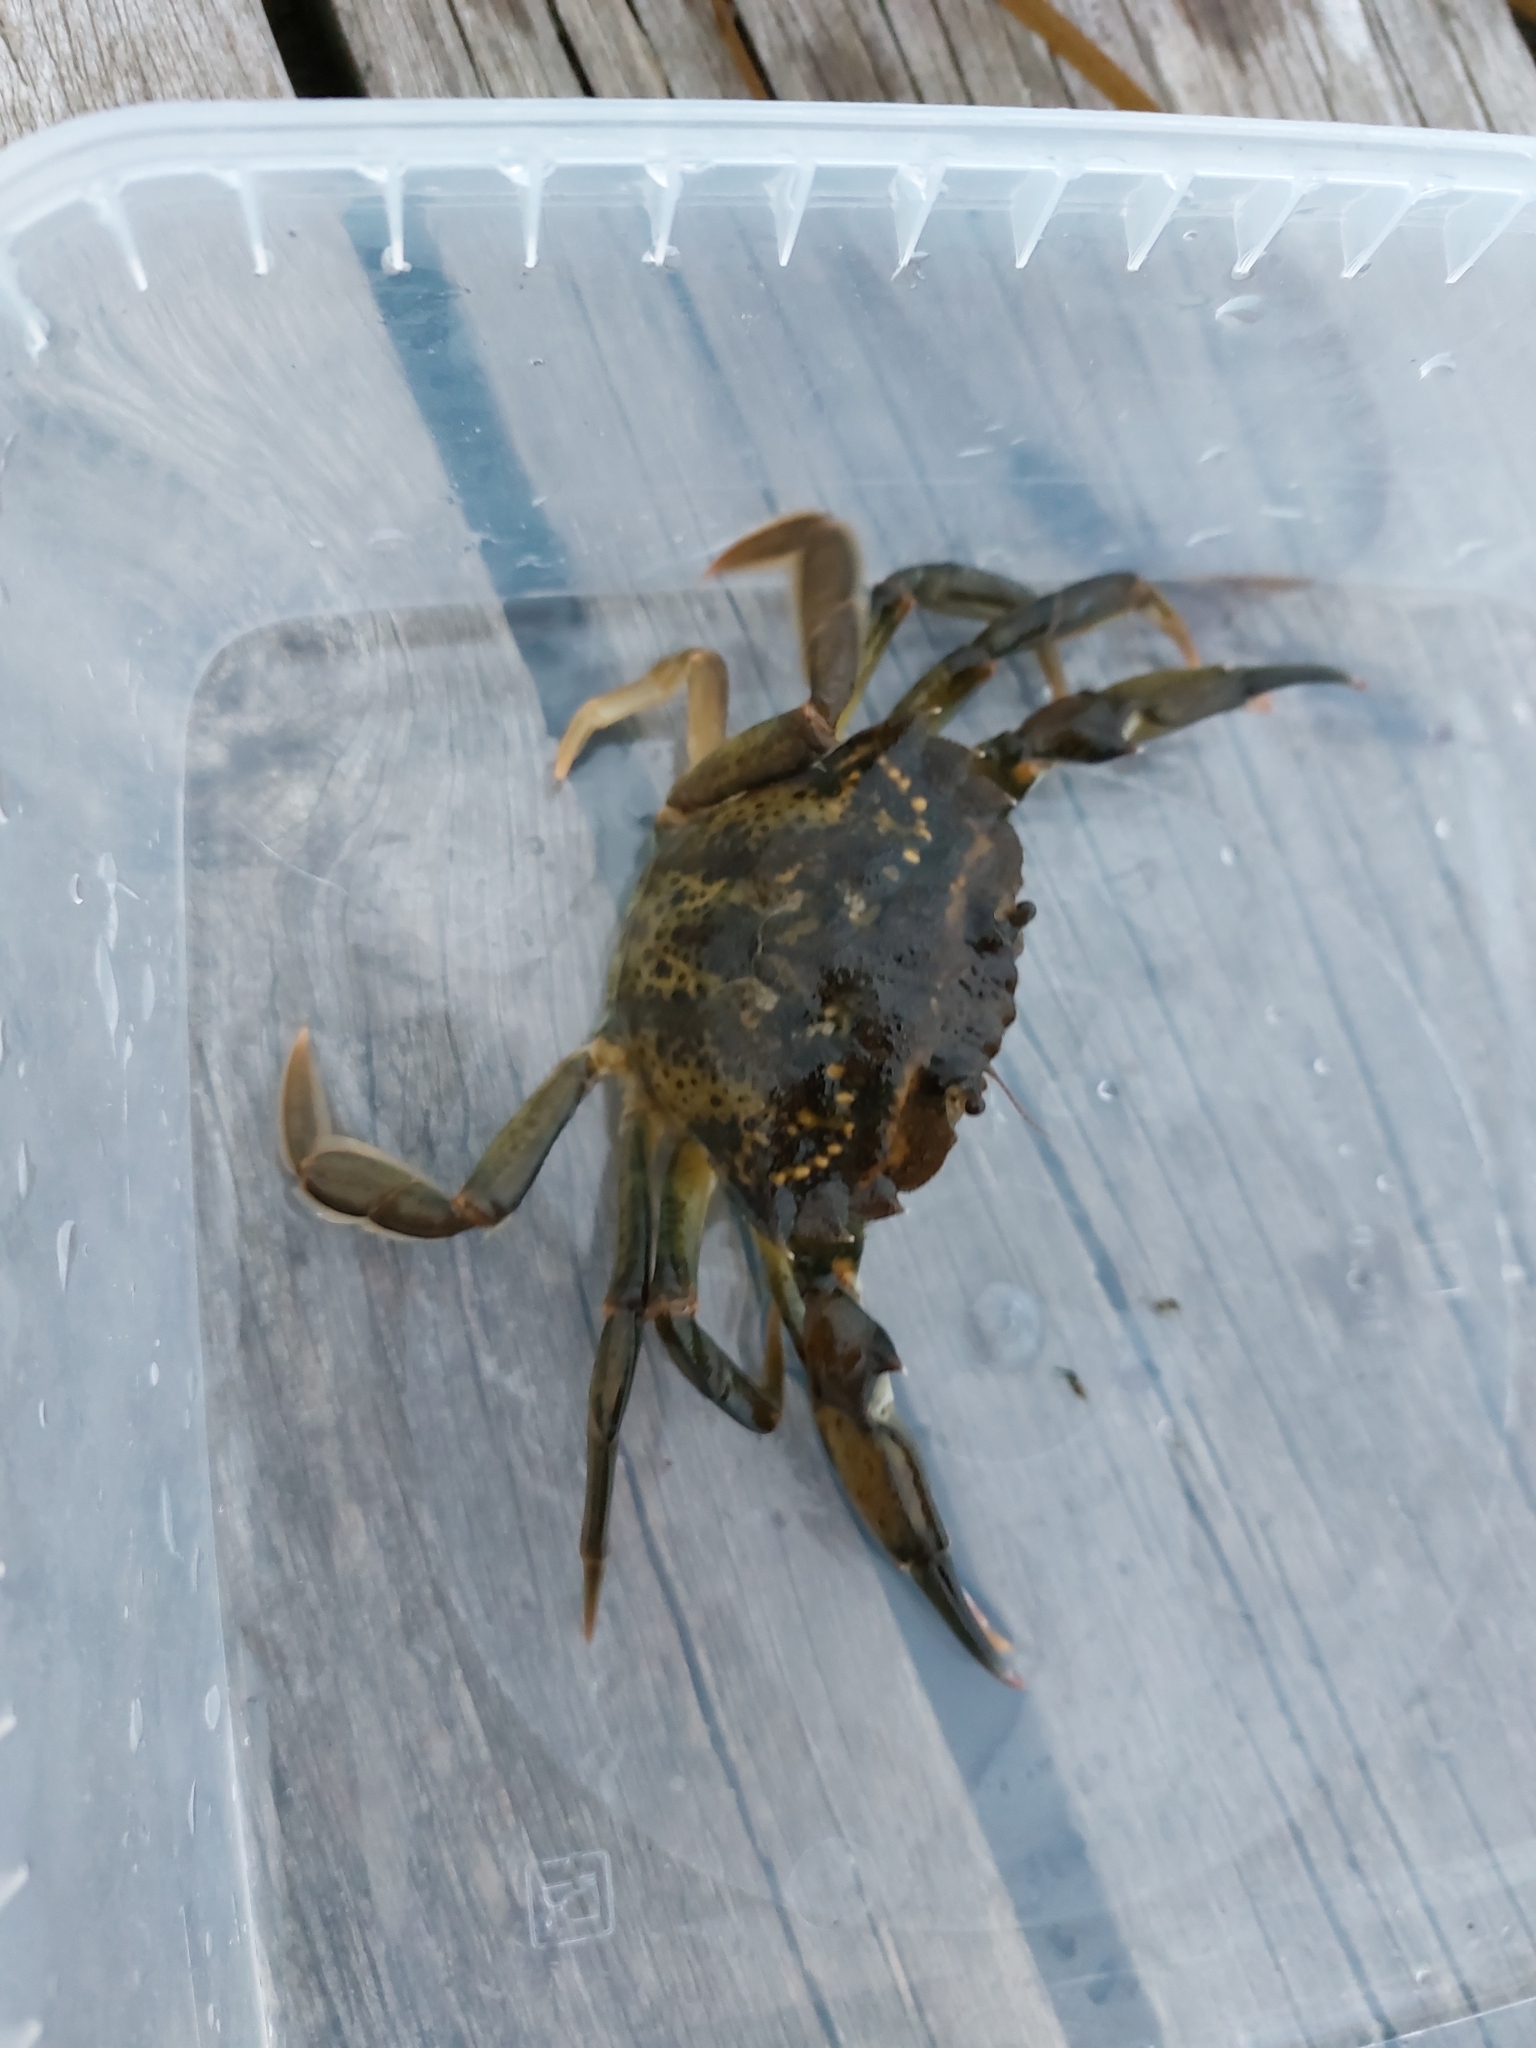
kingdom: Animalia
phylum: Arthropoda
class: Malacostraca
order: Decapoda
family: Carcinidae
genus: Carcinus
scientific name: Carcinus maenas
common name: European green crab
